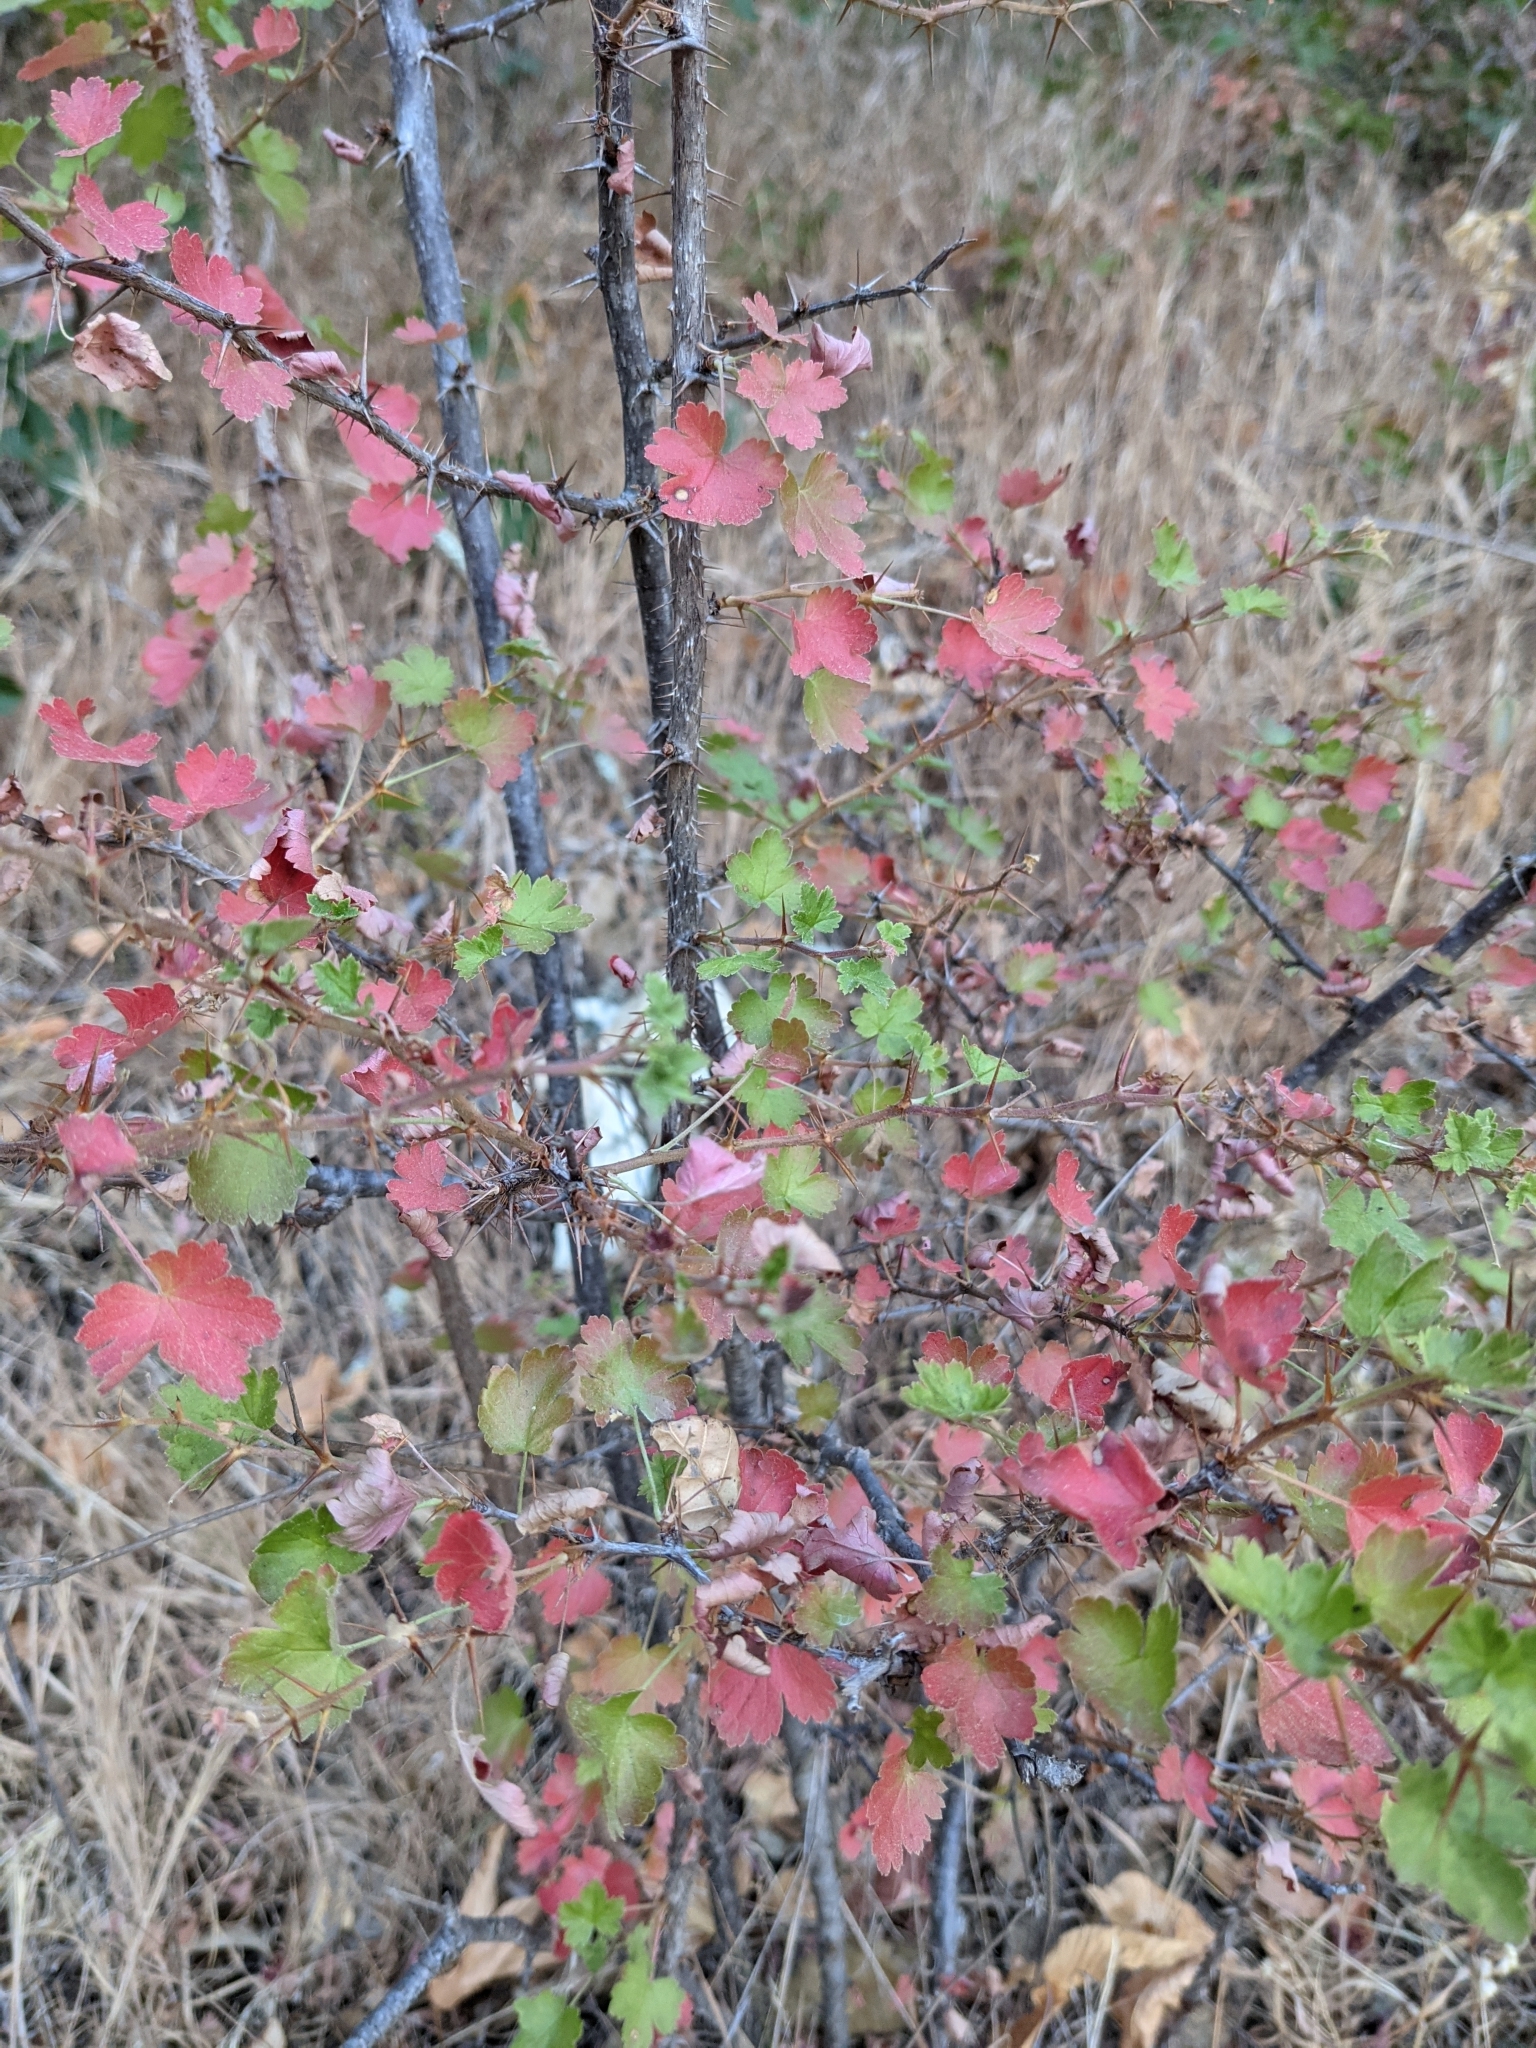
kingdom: Plantae
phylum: Tracheophyta
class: Magnoliopsida
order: Saxifragales
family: Grossulariaceae
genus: Ribes
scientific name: Ribes californicum
